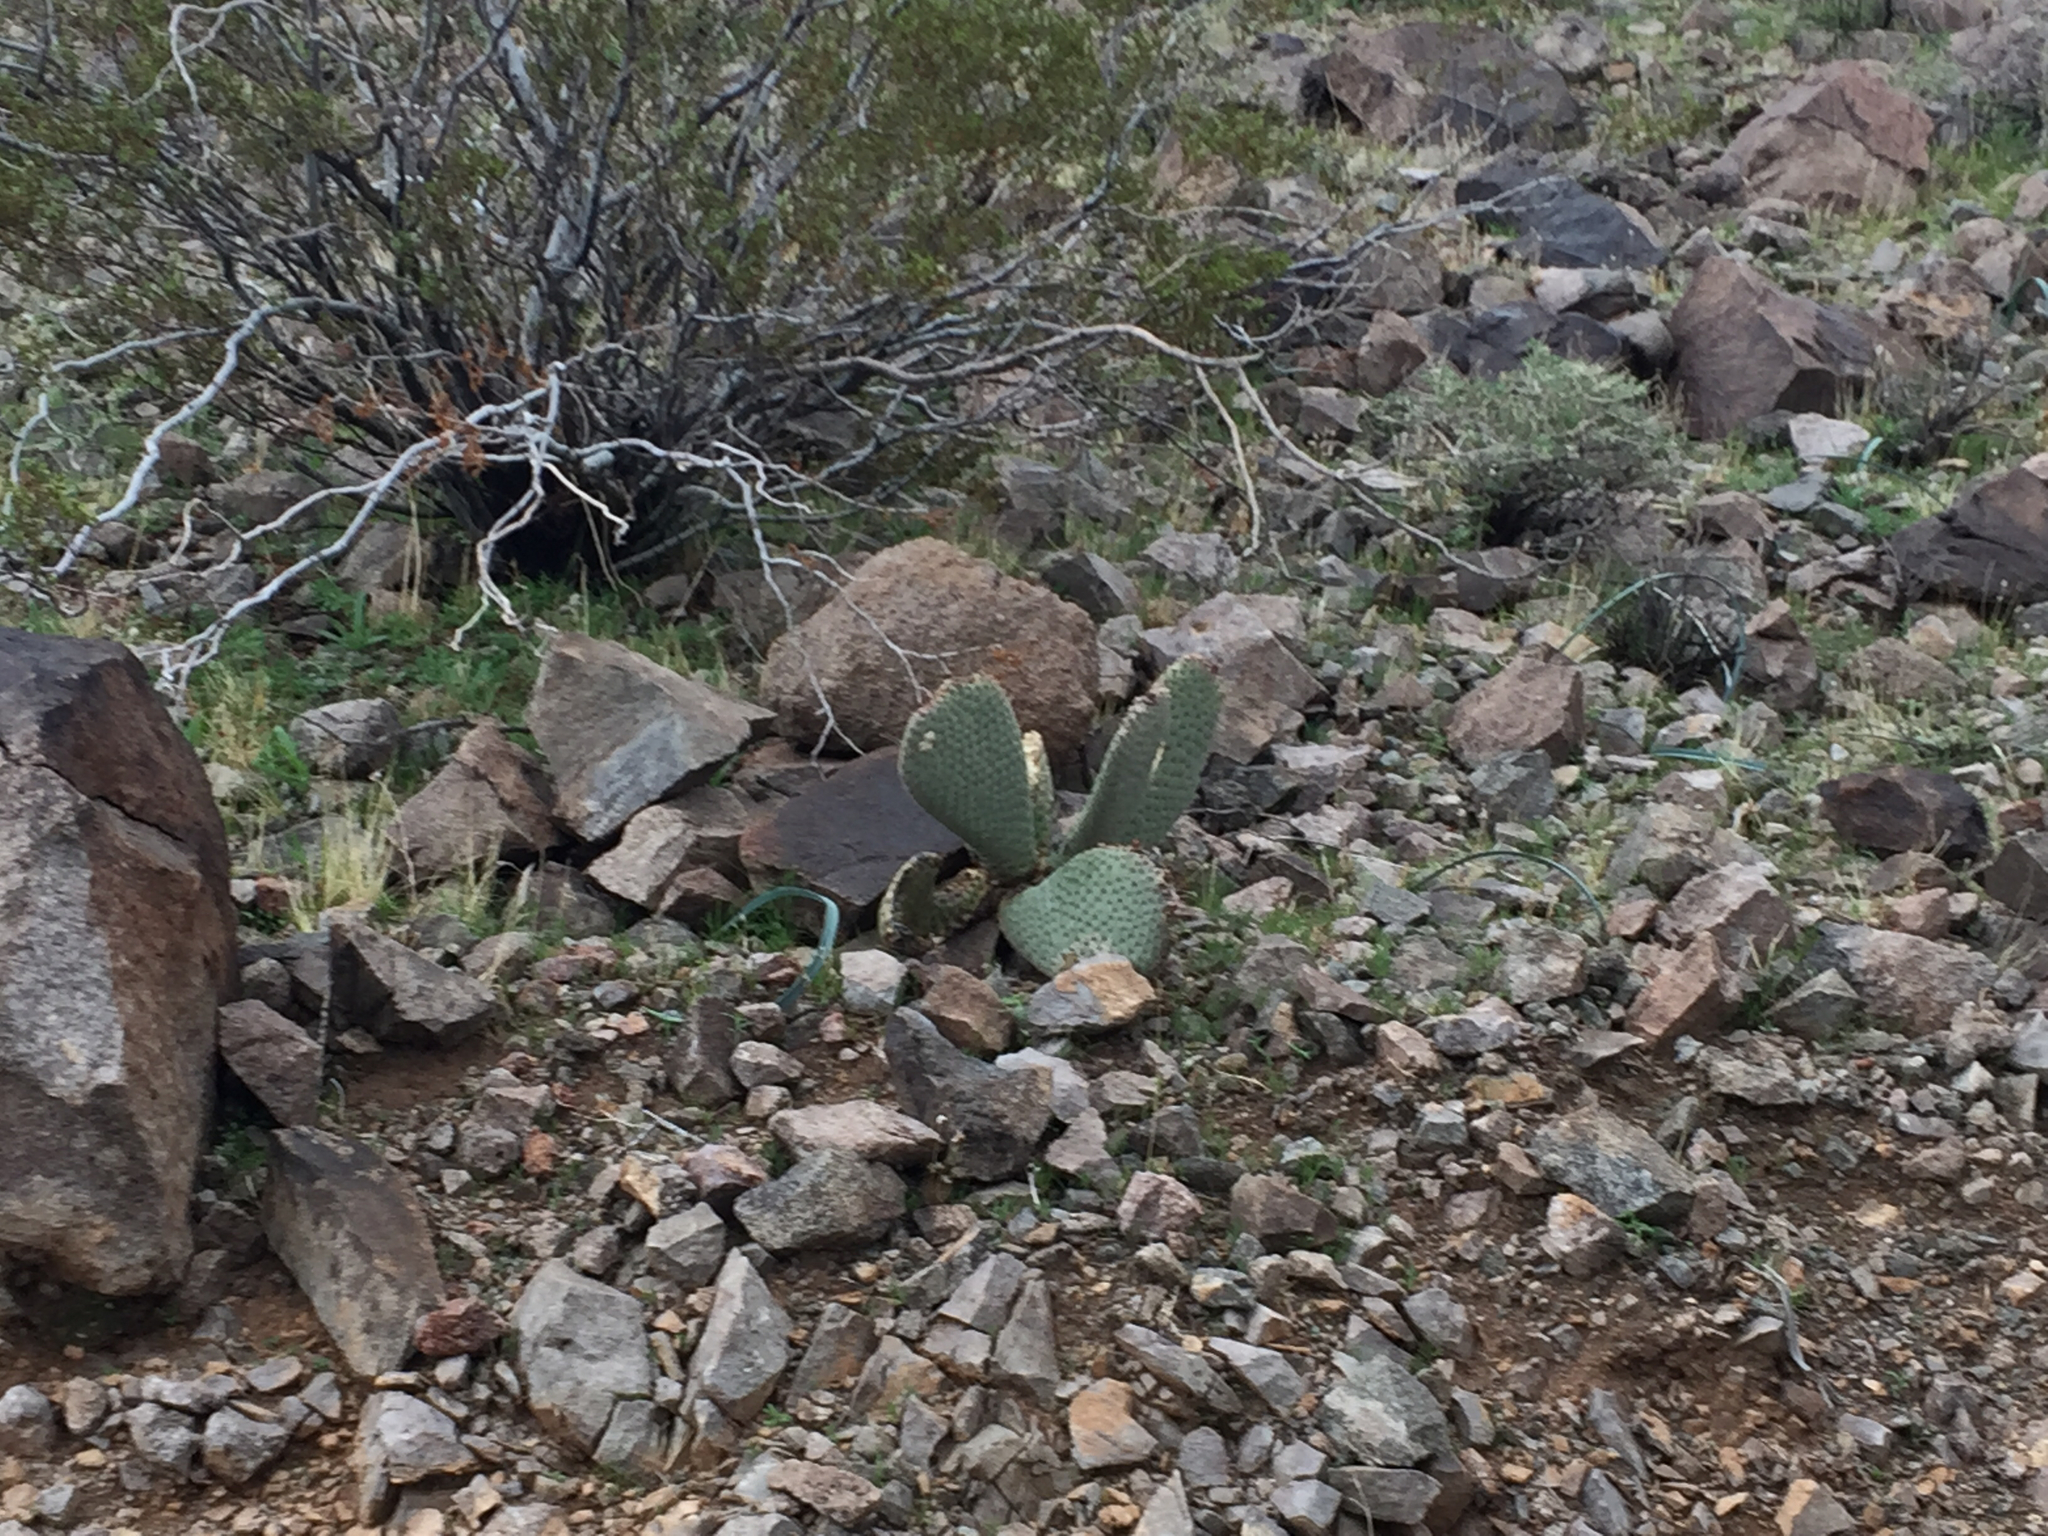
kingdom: Plantae
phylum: Tracheophyta
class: Magnoliopsida
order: Caryophyllales
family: Cactaceae
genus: Opuntia
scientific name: Opuntia basilaris
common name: Beavertail prickly-pear
